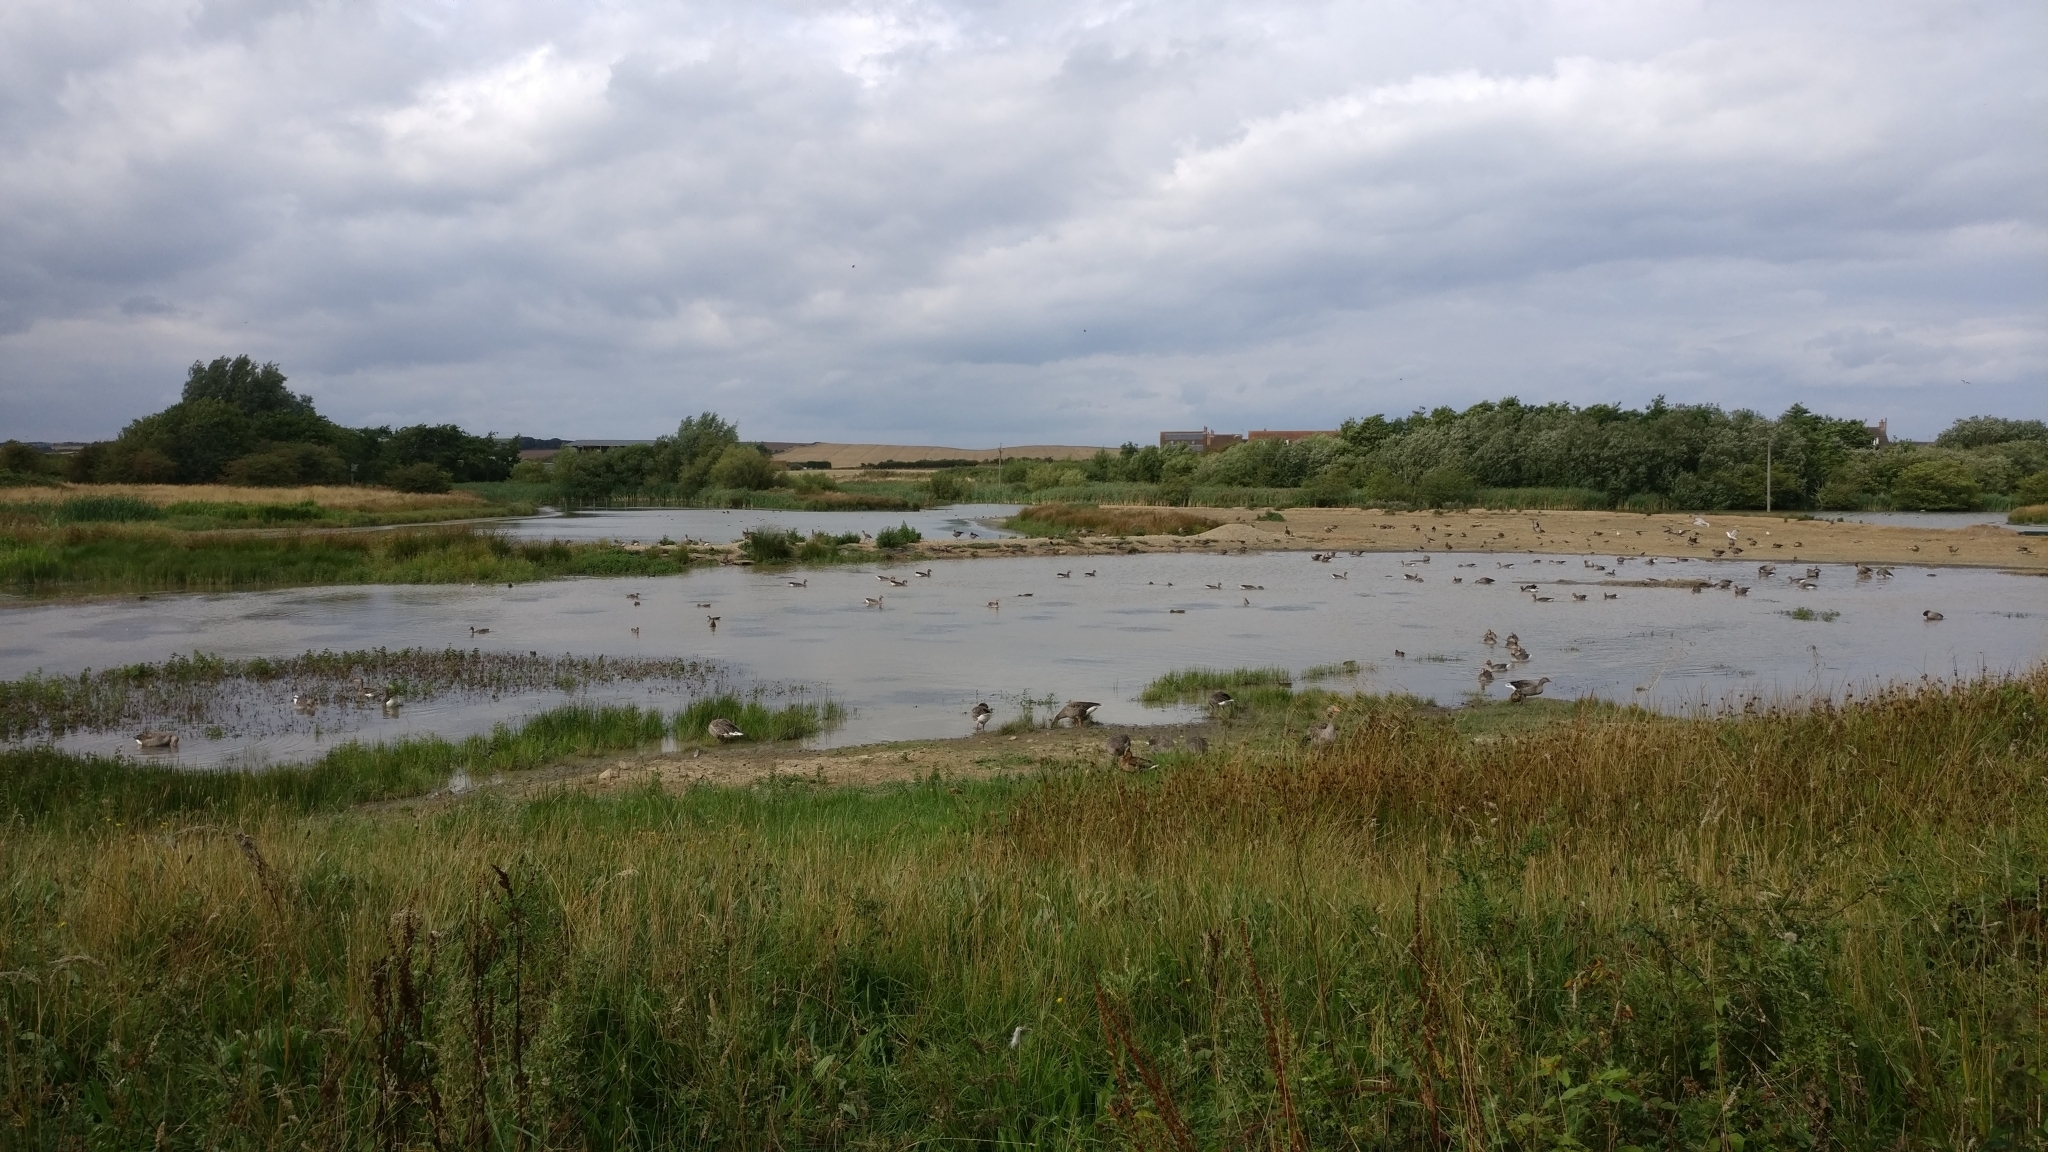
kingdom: Animalia
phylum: Chordata
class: Aves
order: Anseriformes
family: Anatidae
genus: Anser
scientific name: Anser anser
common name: Greylag goose
